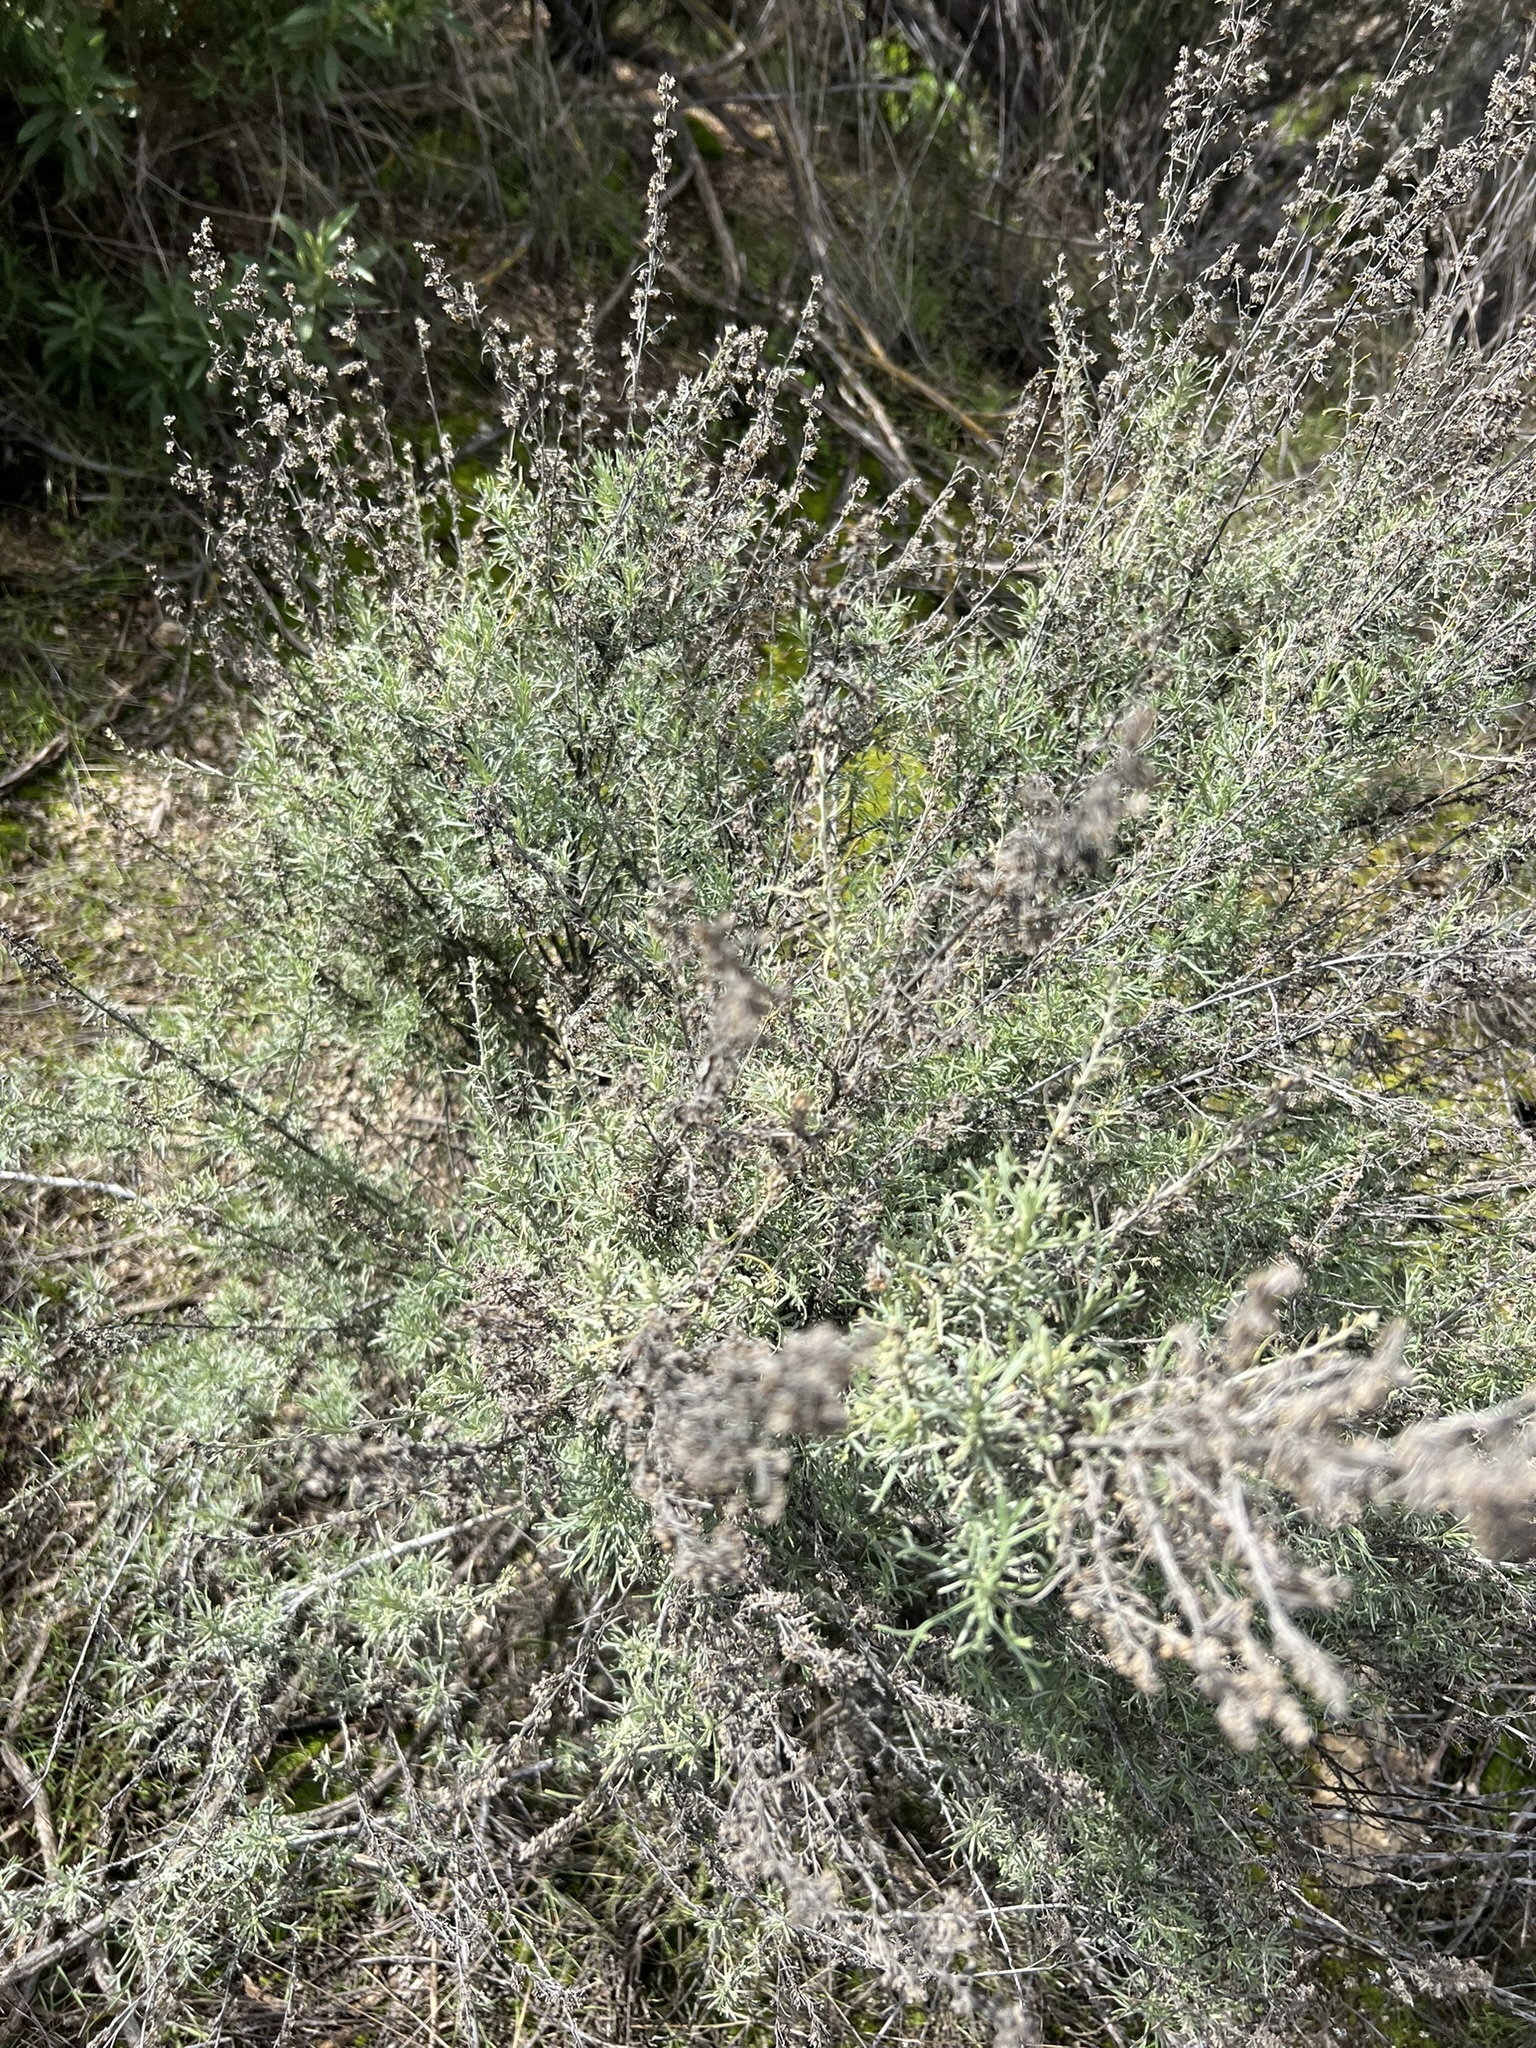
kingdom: Plantae
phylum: Tracheophyta
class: Magnoliopsida
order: Asterales
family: Asteraceae
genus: Artemisia
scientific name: Artemisia californica
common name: California sagebrush
